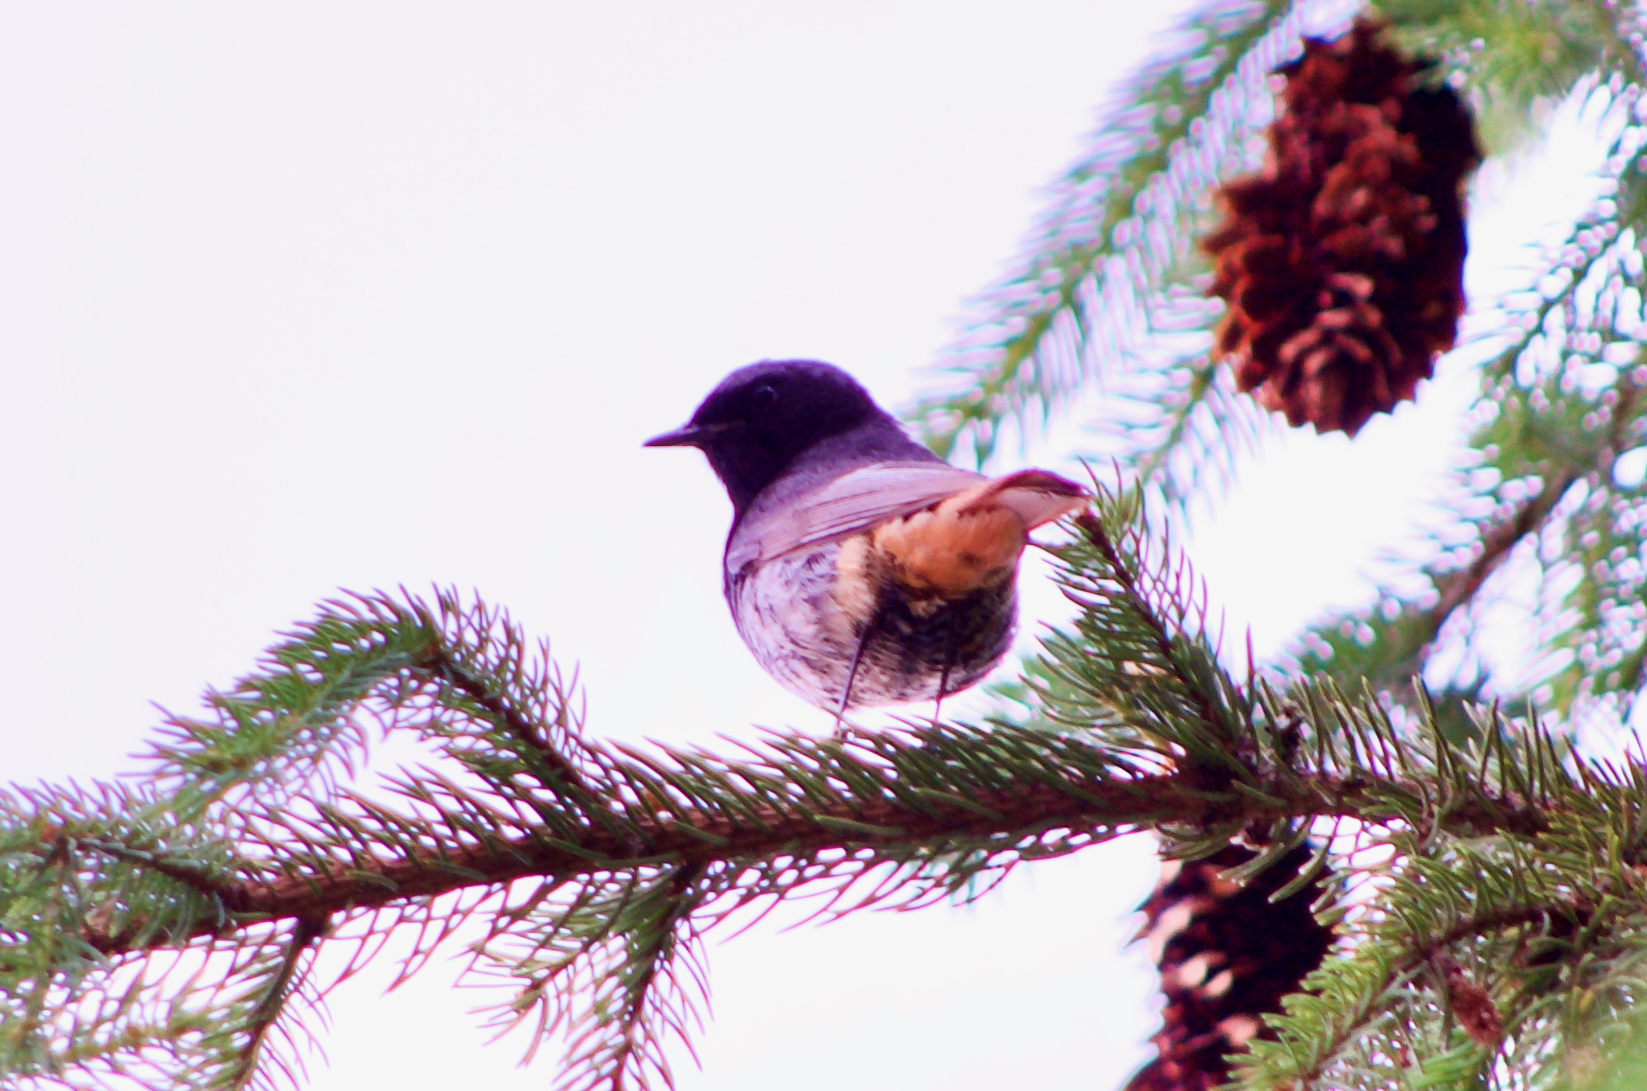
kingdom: Animalia
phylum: Chordata
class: Aves
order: Passeriformes
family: Muscicapidae
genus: Phoenicurus
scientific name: Phoenicurus ochruros
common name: Black redstart
